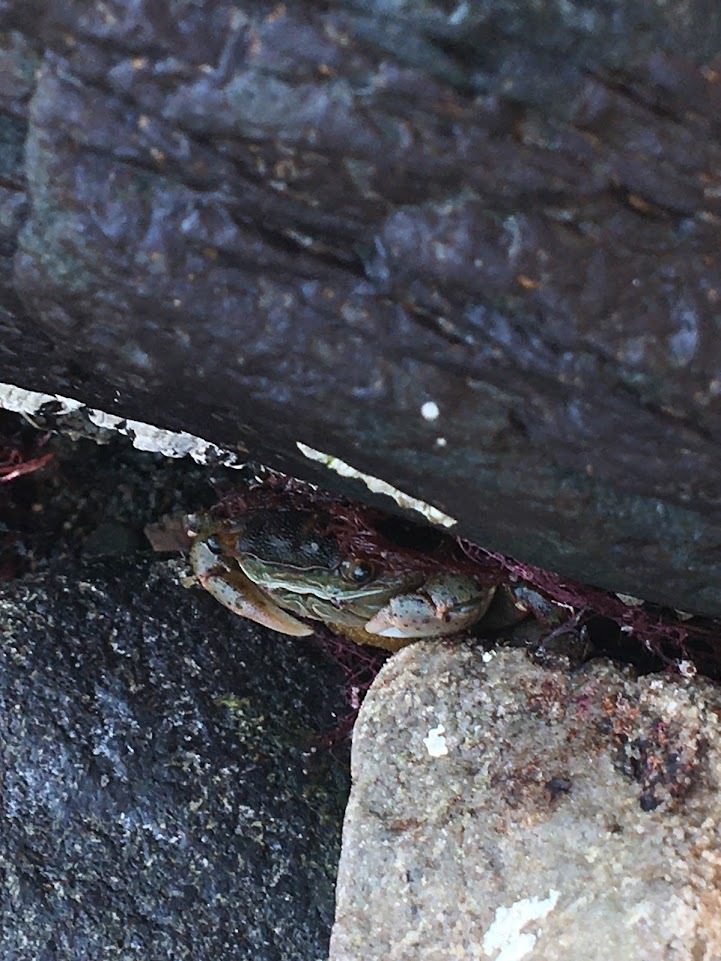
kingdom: Animalia
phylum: Arthropoda
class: Malacostraca
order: Decapoda
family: Varunidae
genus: Hemigrapsus
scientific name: Hemigrapsus sanguineus
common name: Asian shore crab
